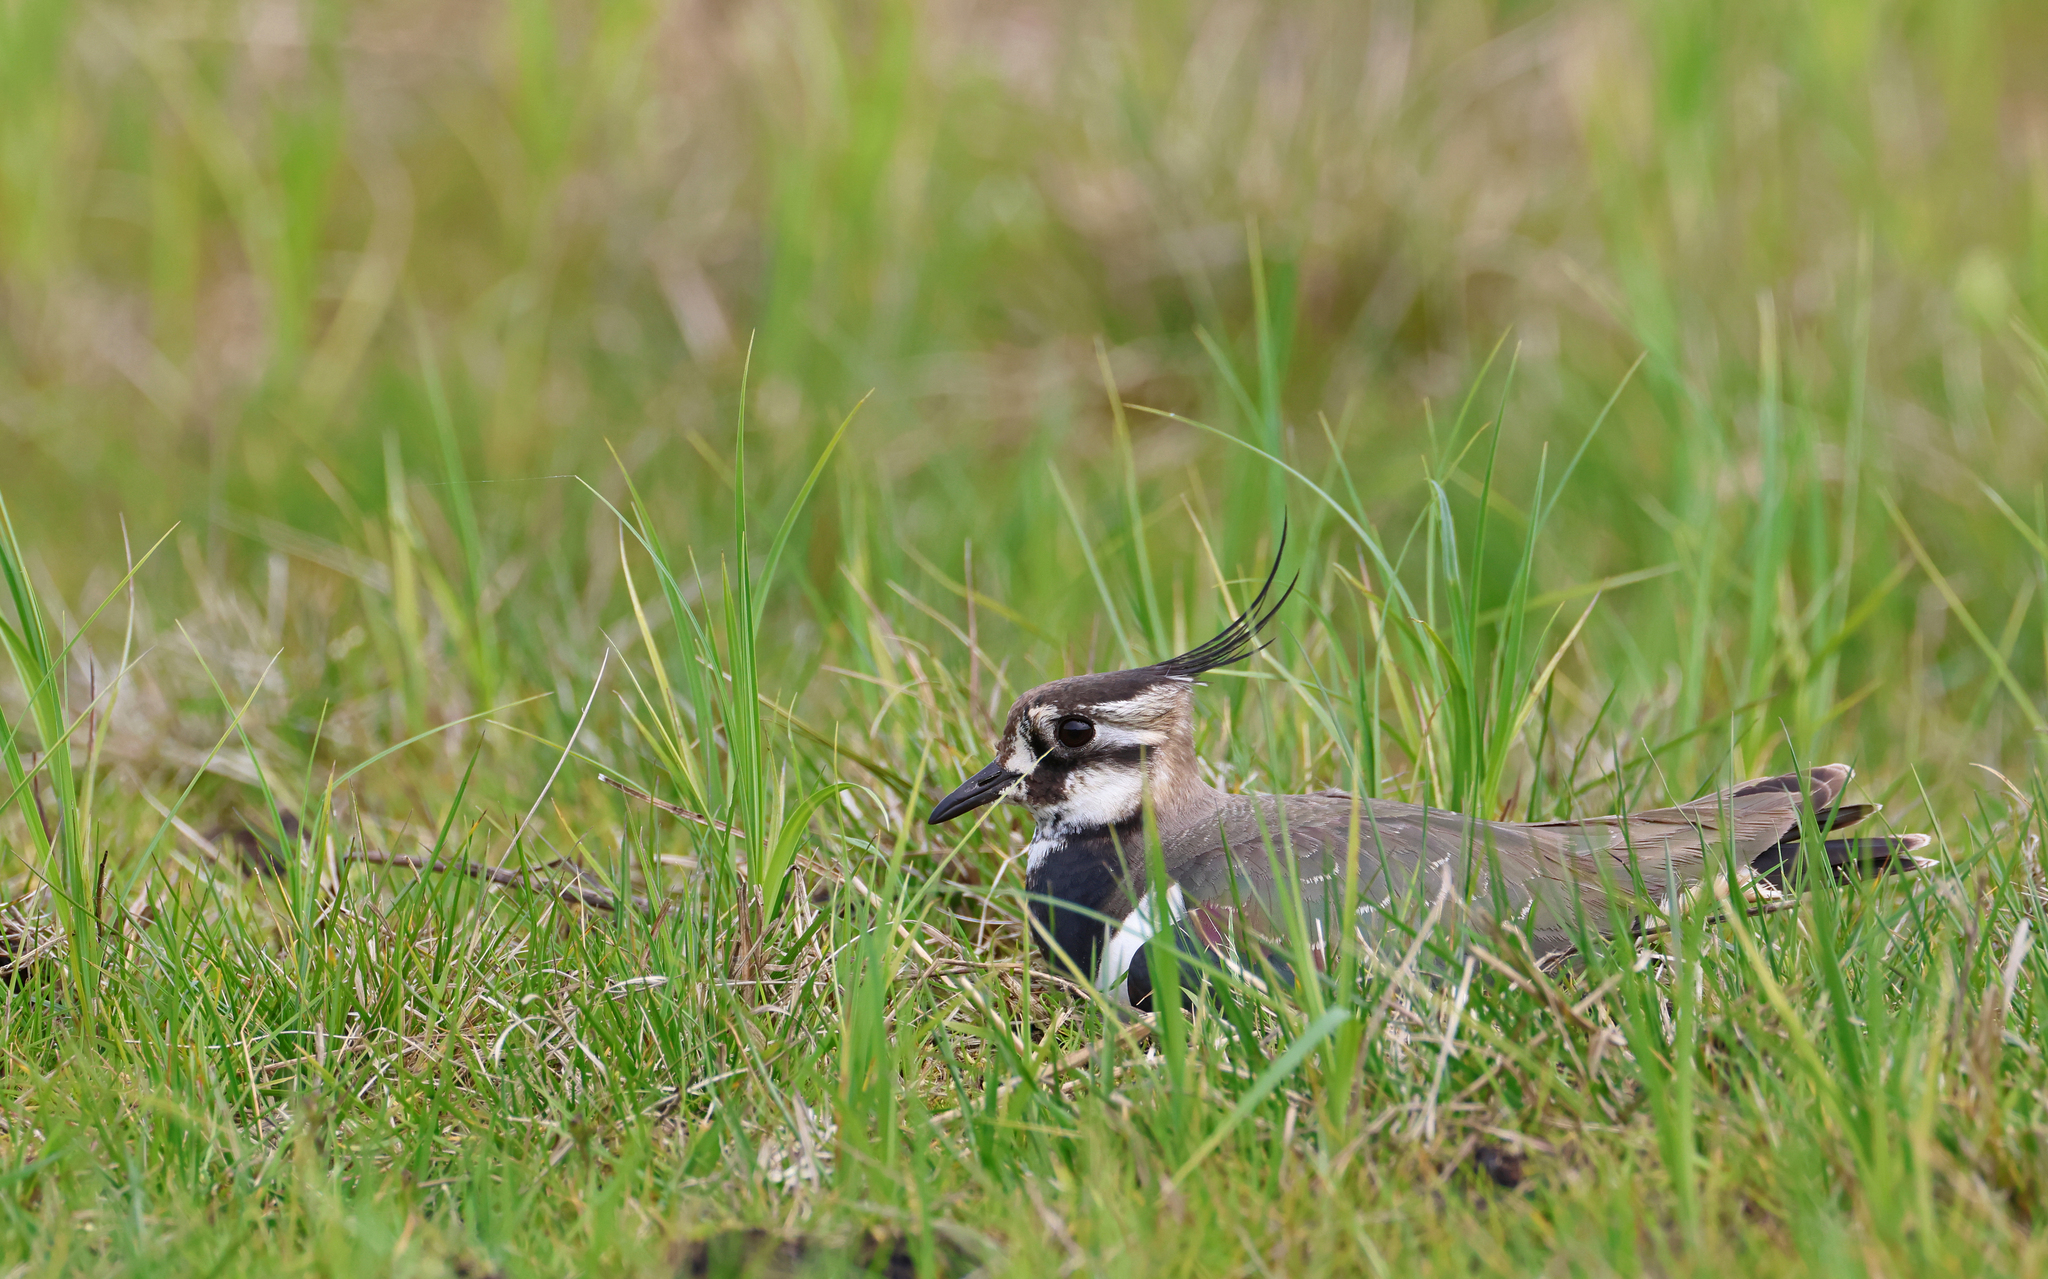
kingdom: Animalia
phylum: Chordata
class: Aves
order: Charadriiformes
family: Charadriidae
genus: Vanellus
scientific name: Vanellus vanellus
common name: Northern lapwing
